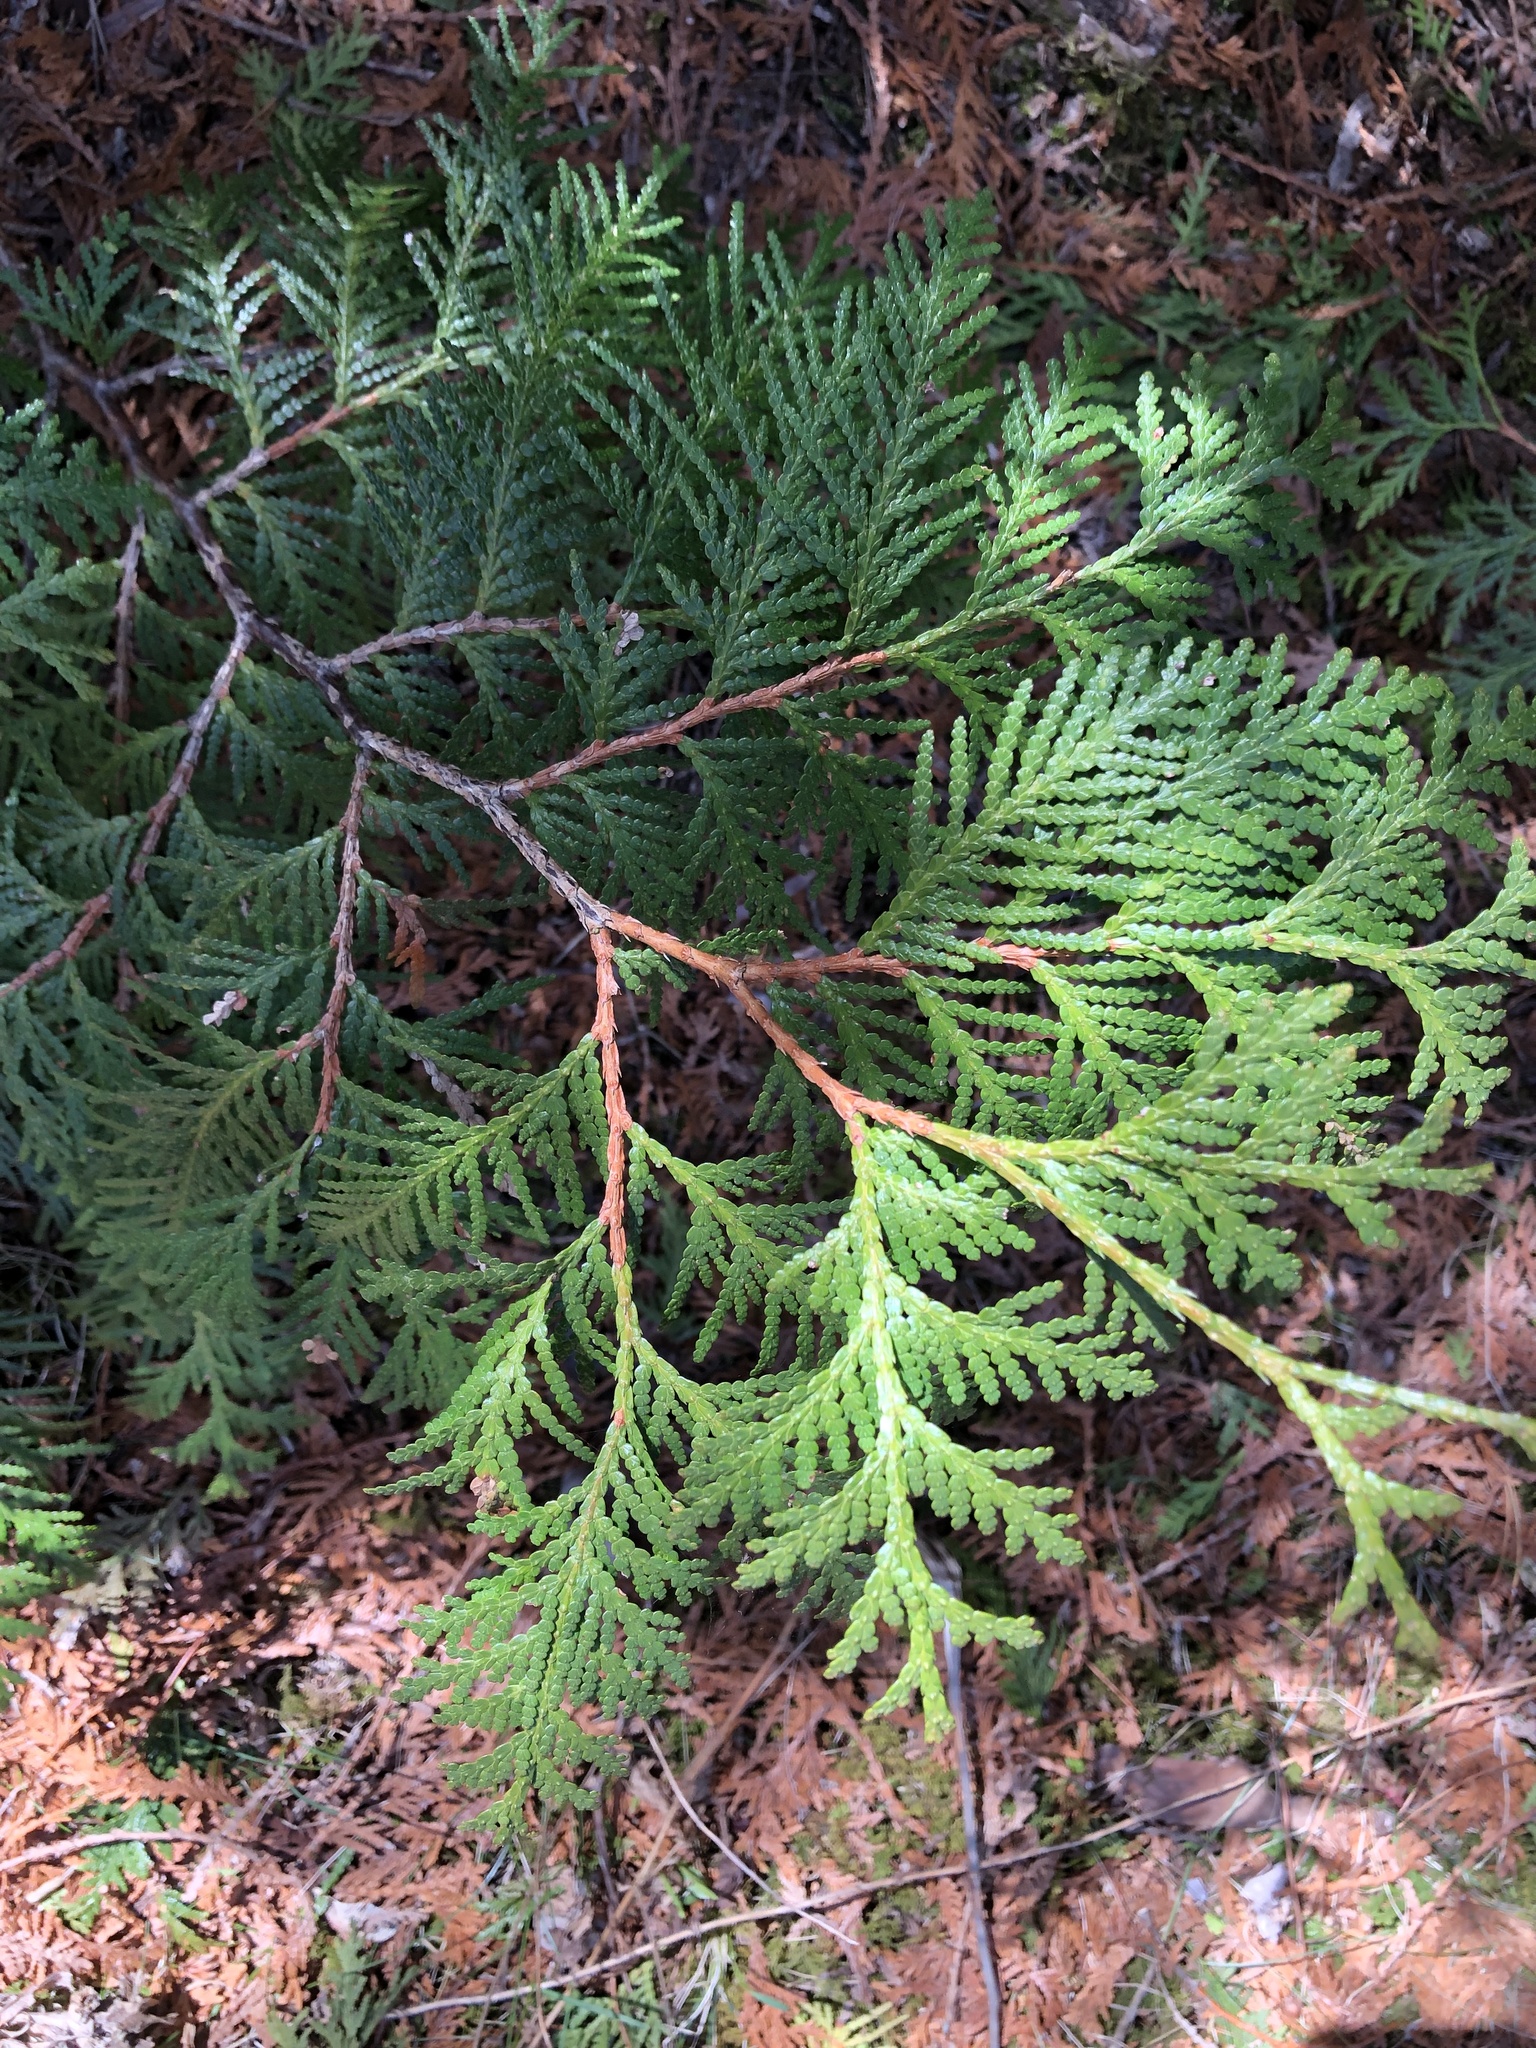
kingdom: Plantae
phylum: Tracheophyta
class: Pinopsida
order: Pinales
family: Cupressaceae
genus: Thuja
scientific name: Thuja occidentalis
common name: Northern white-cedar
